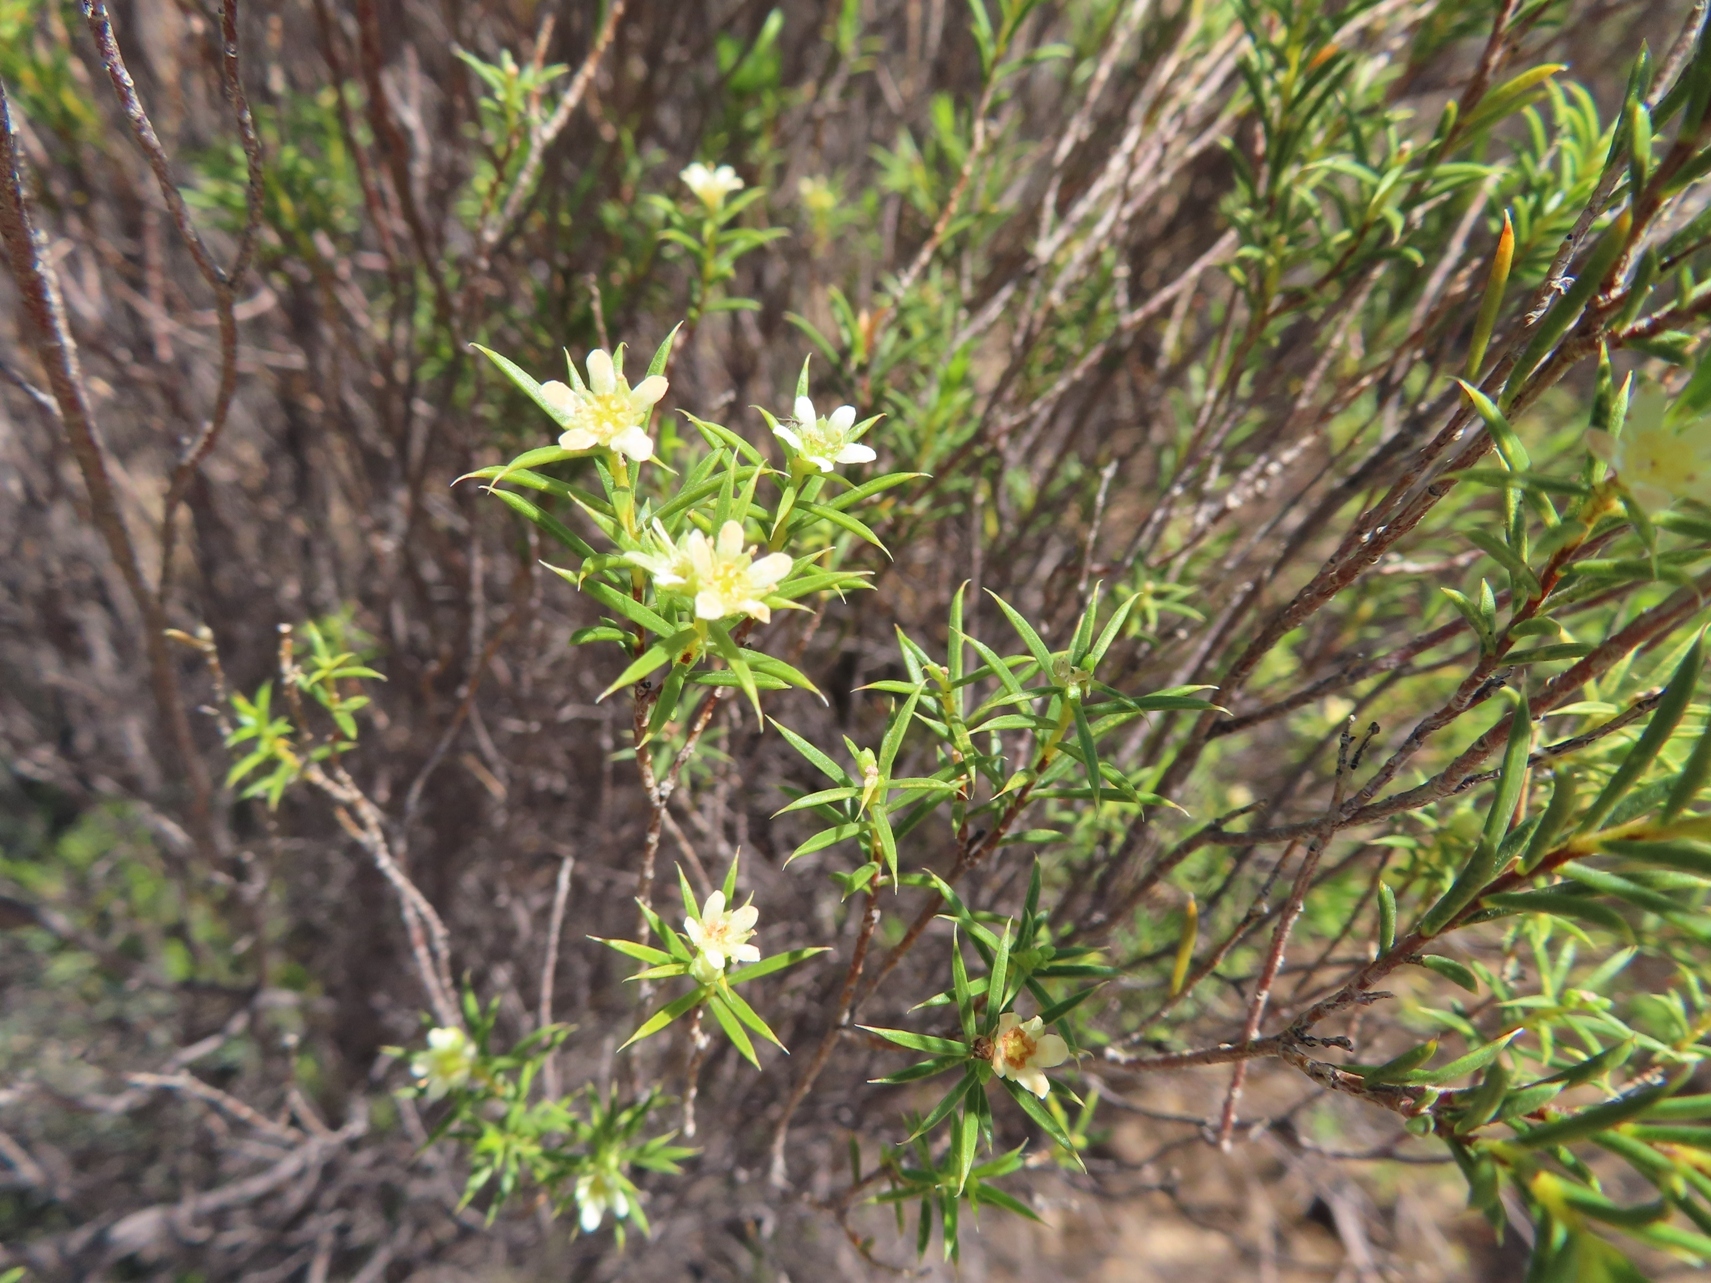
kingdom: Plantae
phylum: Tracheophyta
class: Magnoliopsida
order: Sapindales
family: Rutaceae
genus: Diosma
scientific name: Diosma acmaeophylla
